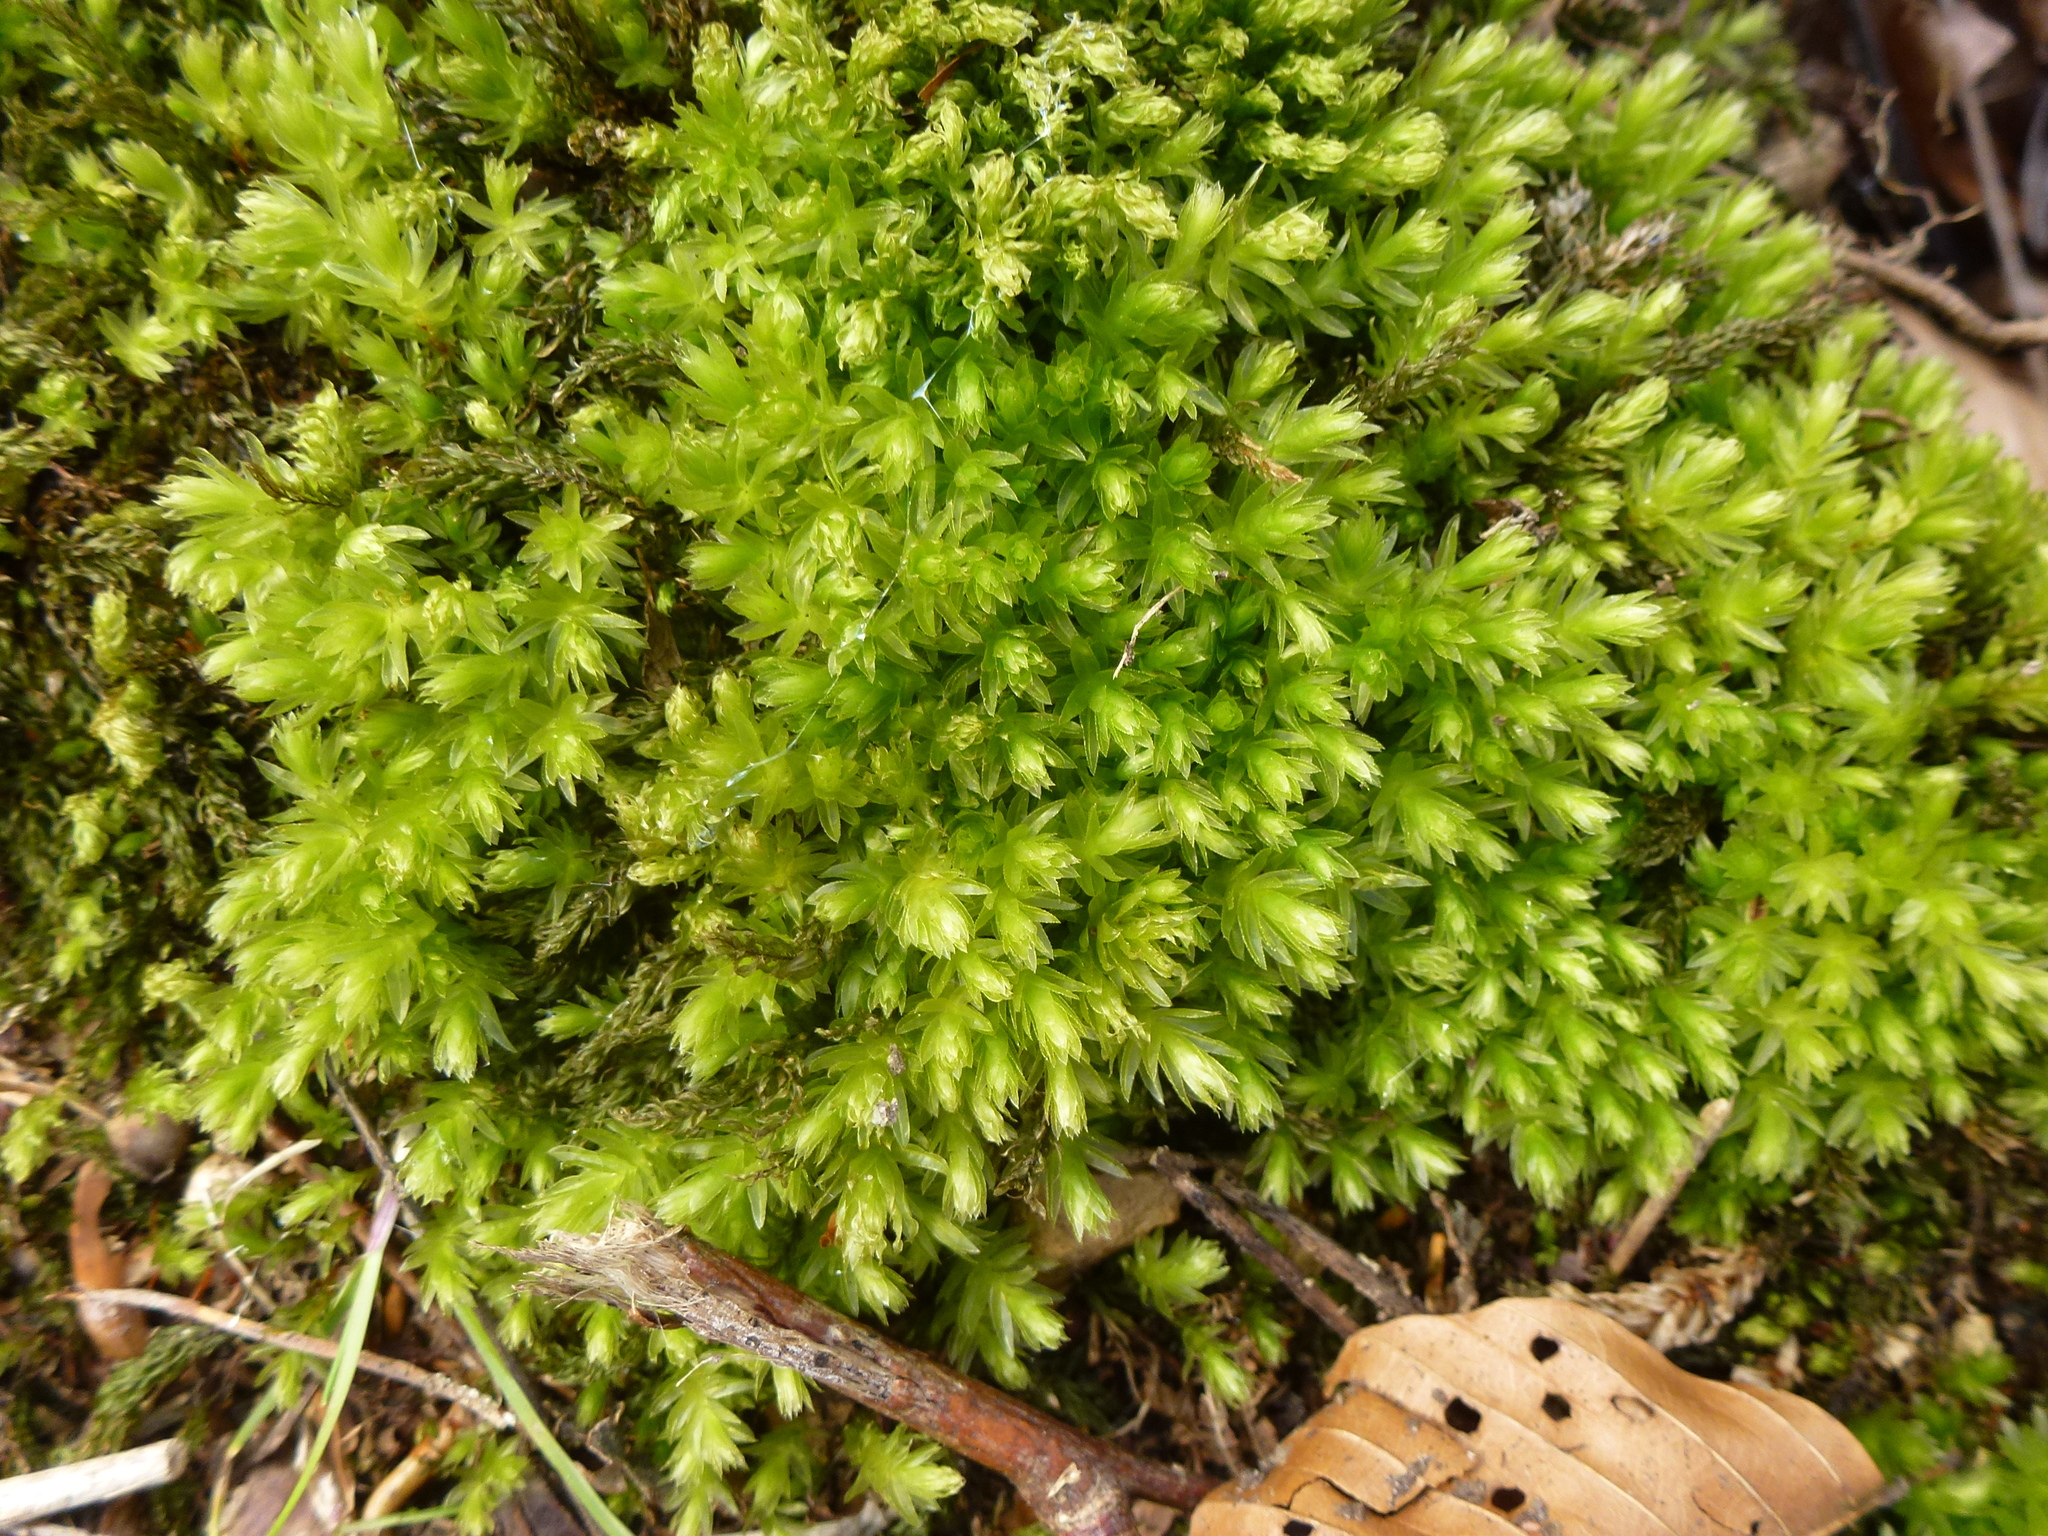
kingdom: Plantae
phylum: Bryophyta
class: Bryopsida
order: Bryales
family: Mniaceae
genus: Mnium
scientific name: Mnium hornum
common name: Swan's-neck leafy moss
